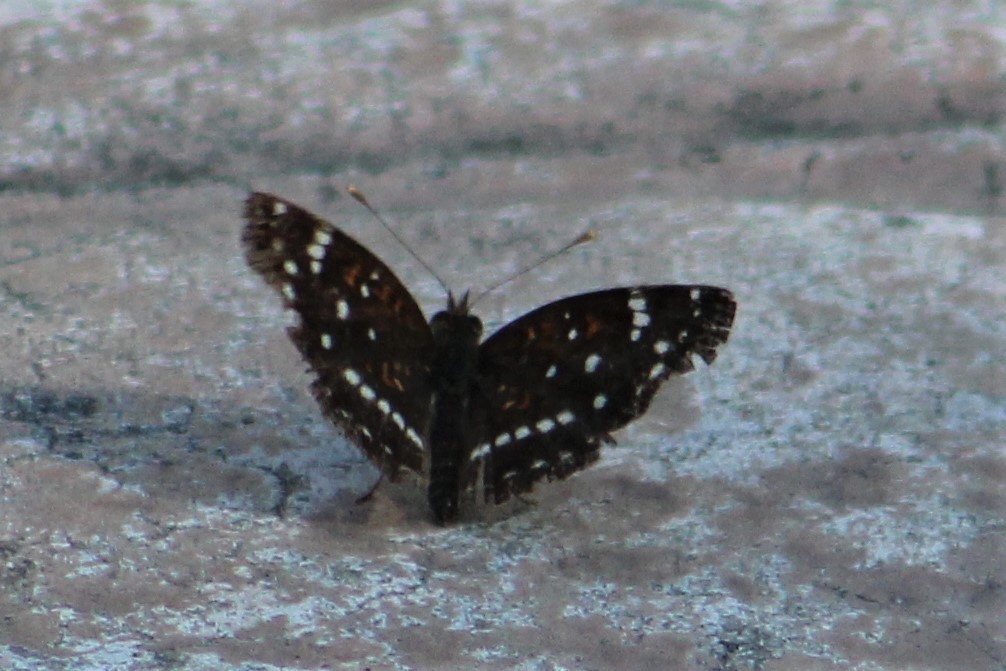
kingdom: Animalia
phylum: Arthropoda
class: Insecta
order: Lepidoptera
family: Nymphalidae
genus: Anthanassa
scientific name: Anthanassa texana
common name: Texan crescent
